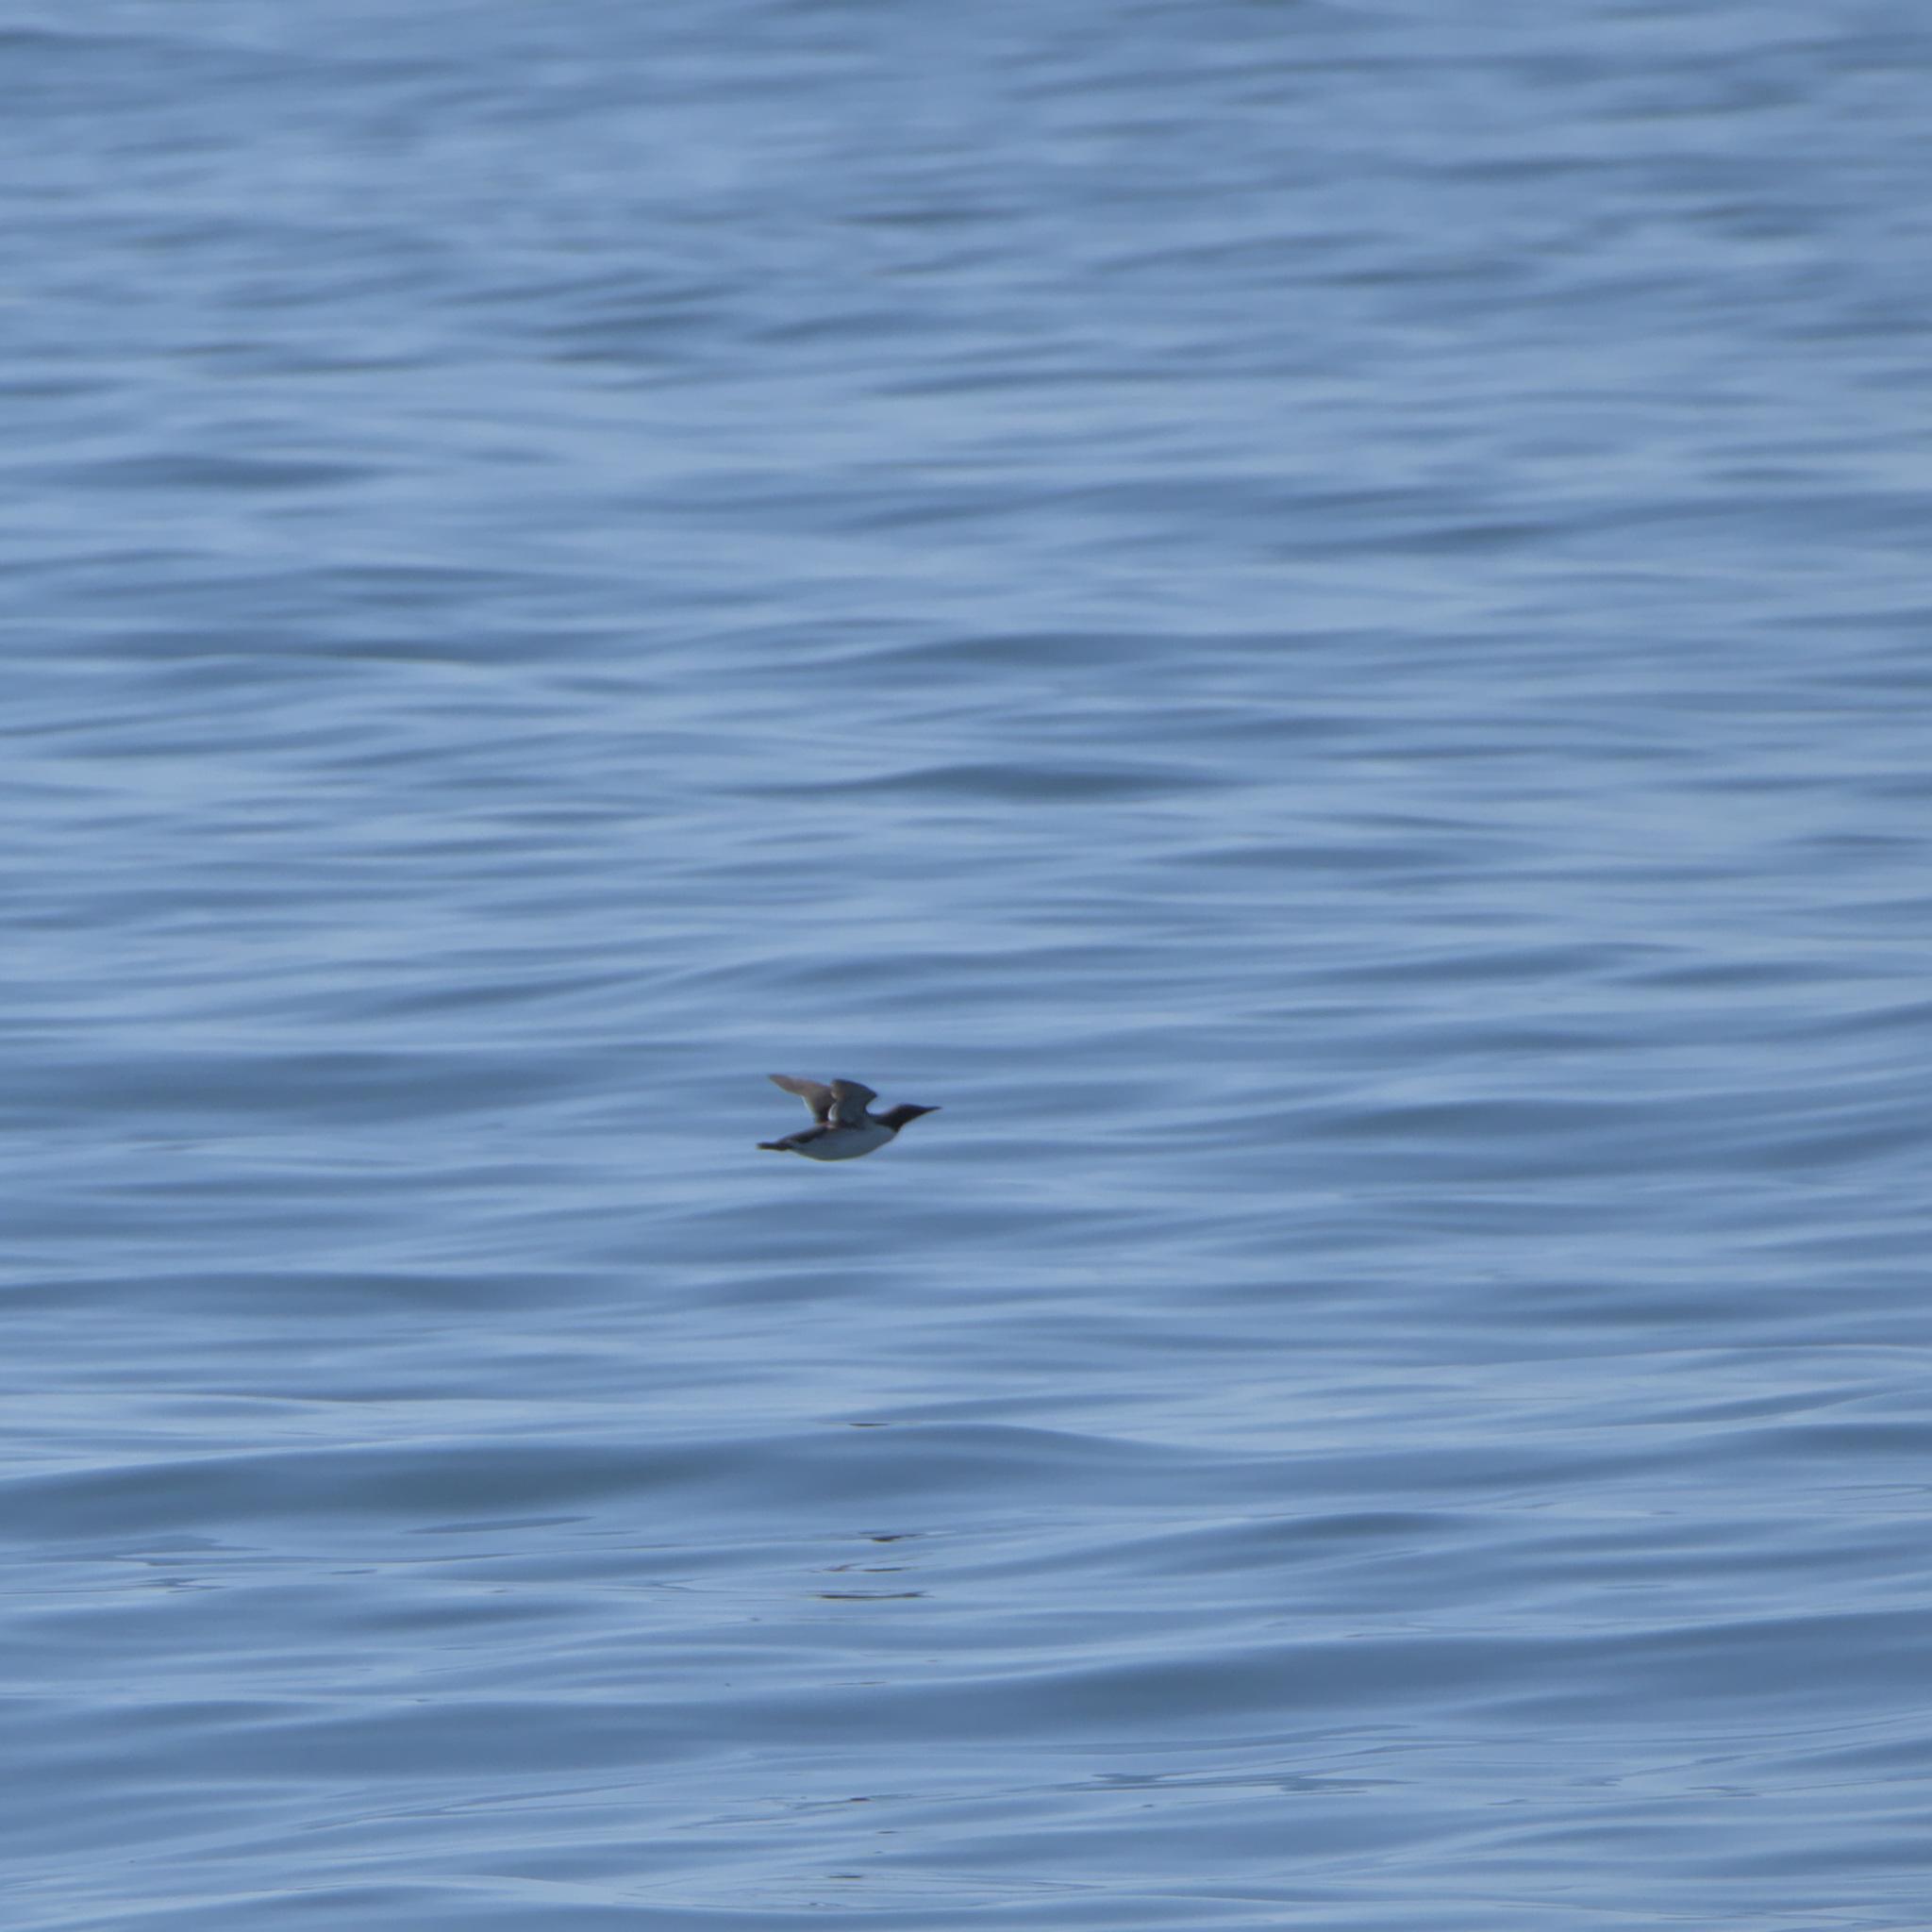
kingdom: Animalia
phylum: Chordata
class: Aves
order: Charadriiformes
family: Alcidae
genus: Uria
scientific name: Uria aalge
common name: Common murre
